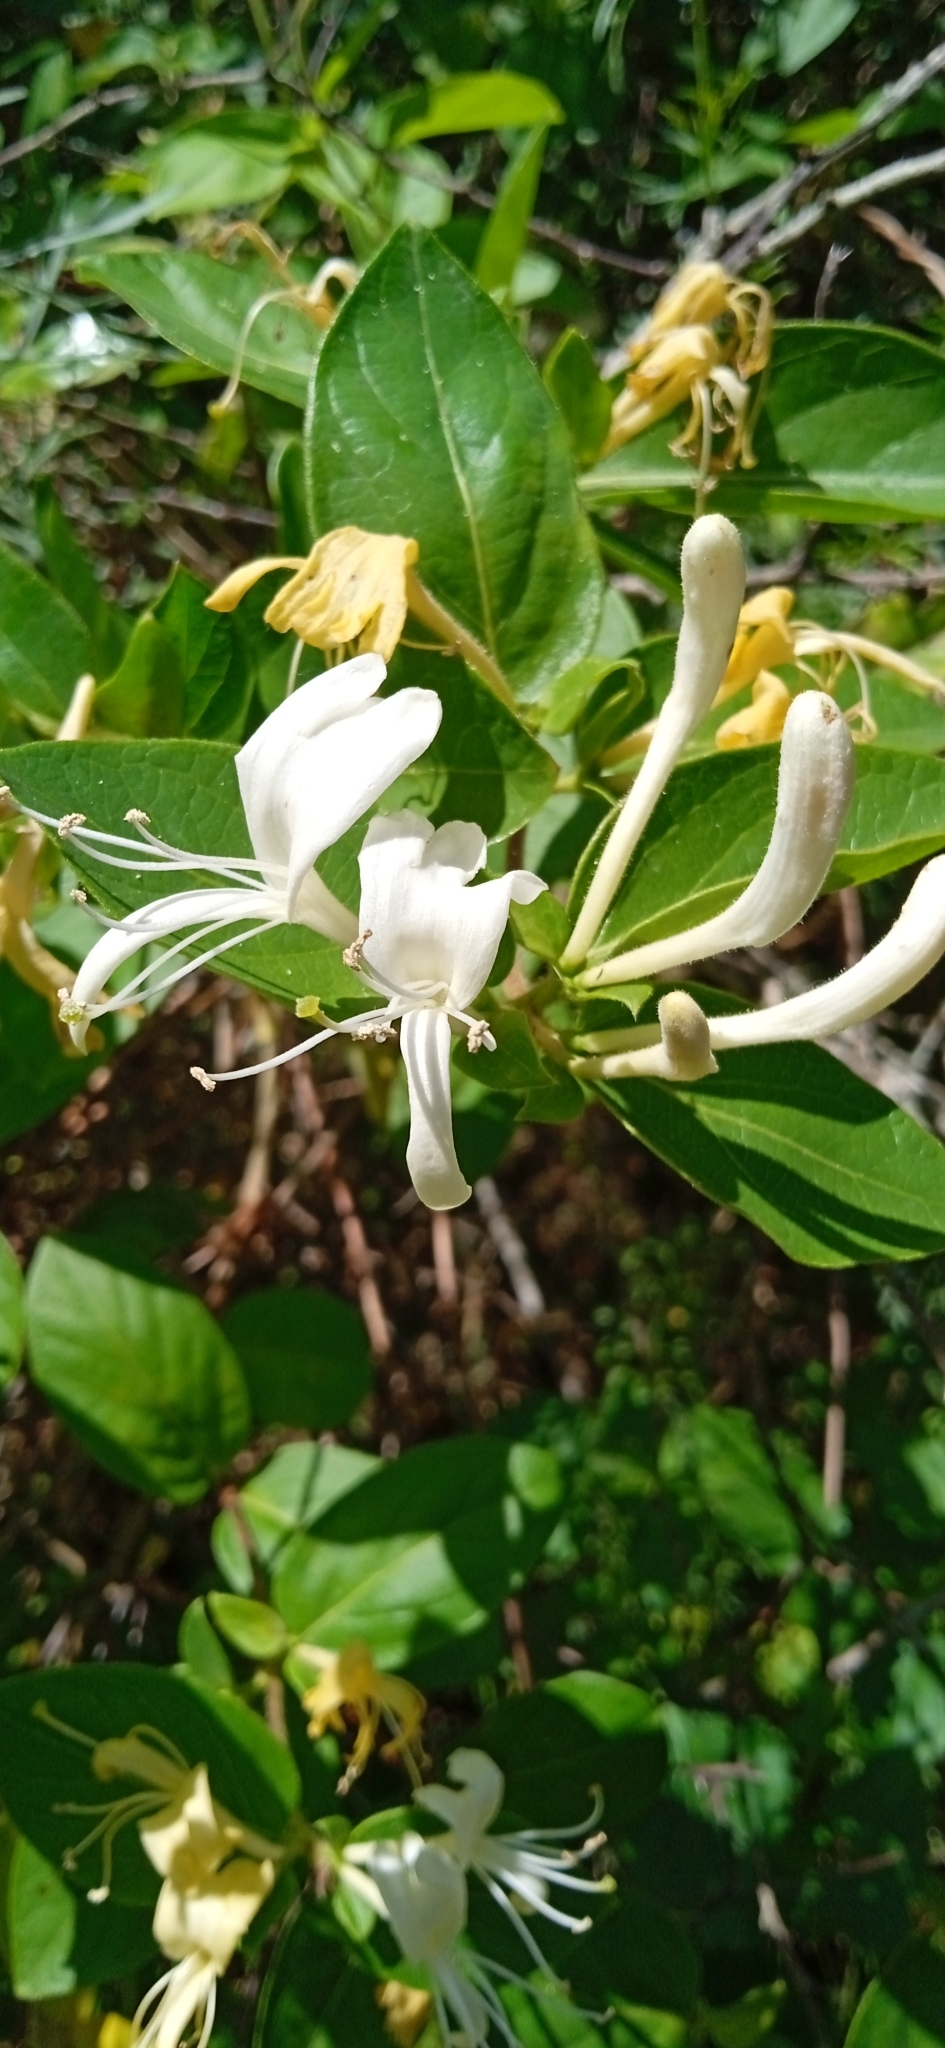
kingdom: Plantae
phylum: Tracheophyta
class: Magnoliopsida
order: Dipsacales
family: Caprifoliaceae
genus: Lonicera
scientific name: Lonicera japonica
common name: Japanese honeysuckle
